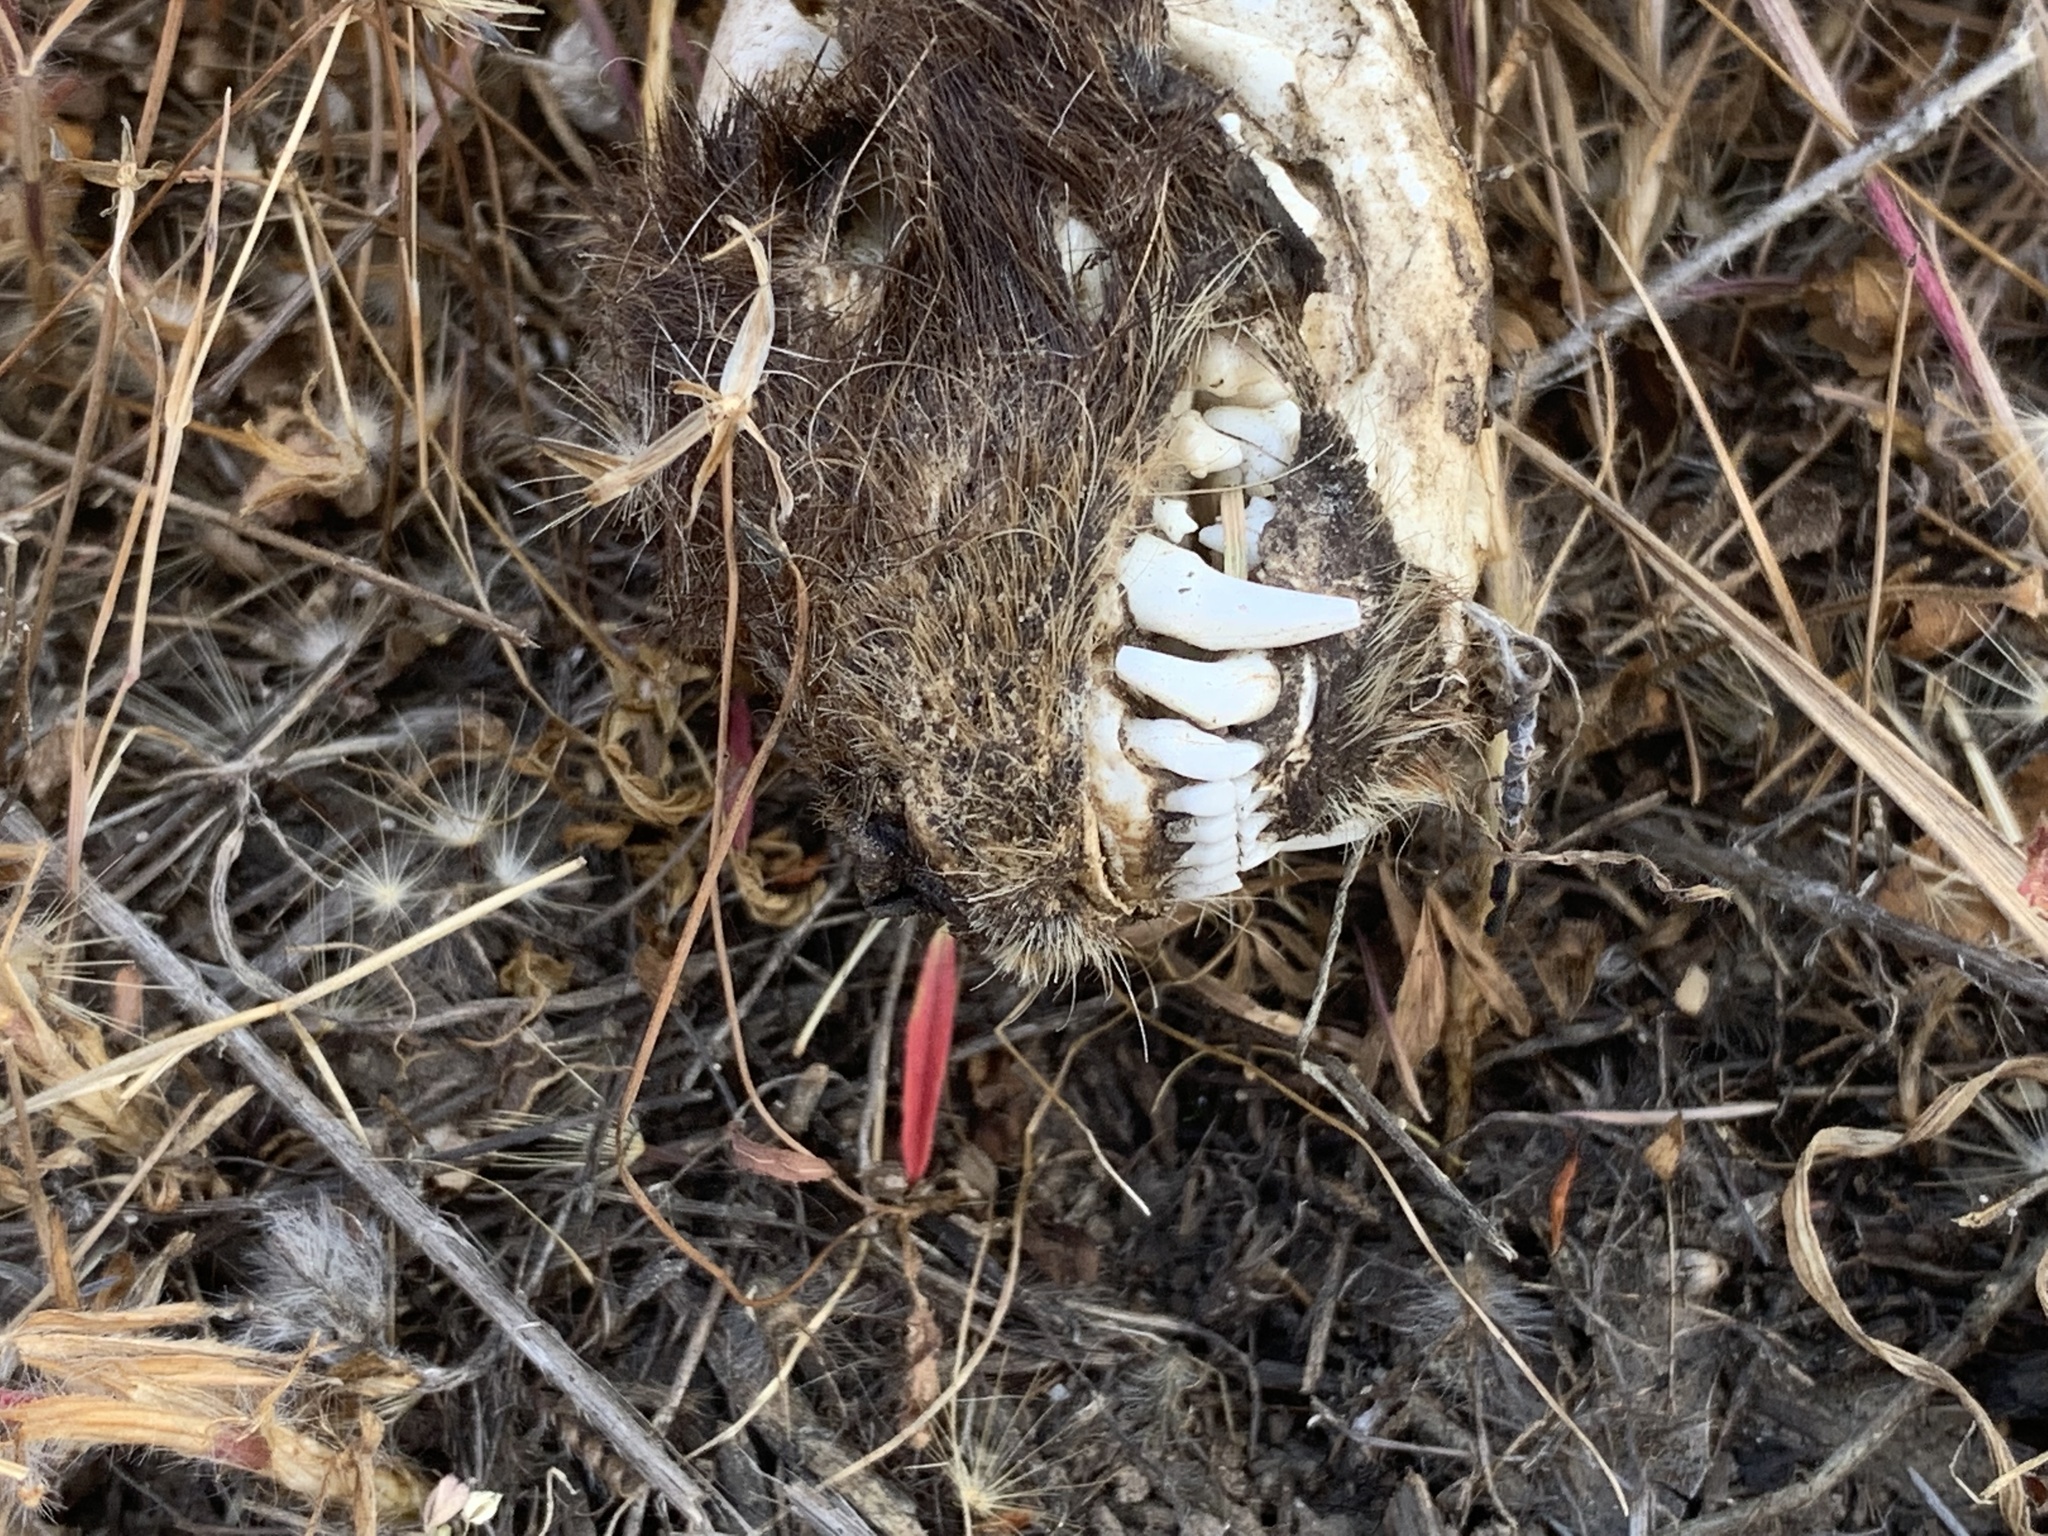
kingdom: Animalia
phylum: Chordata
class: Mammalia
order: Carnivora
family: Mephitidae
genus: Mephitis
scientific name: Mephitis mephitis
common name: Striped skunk
